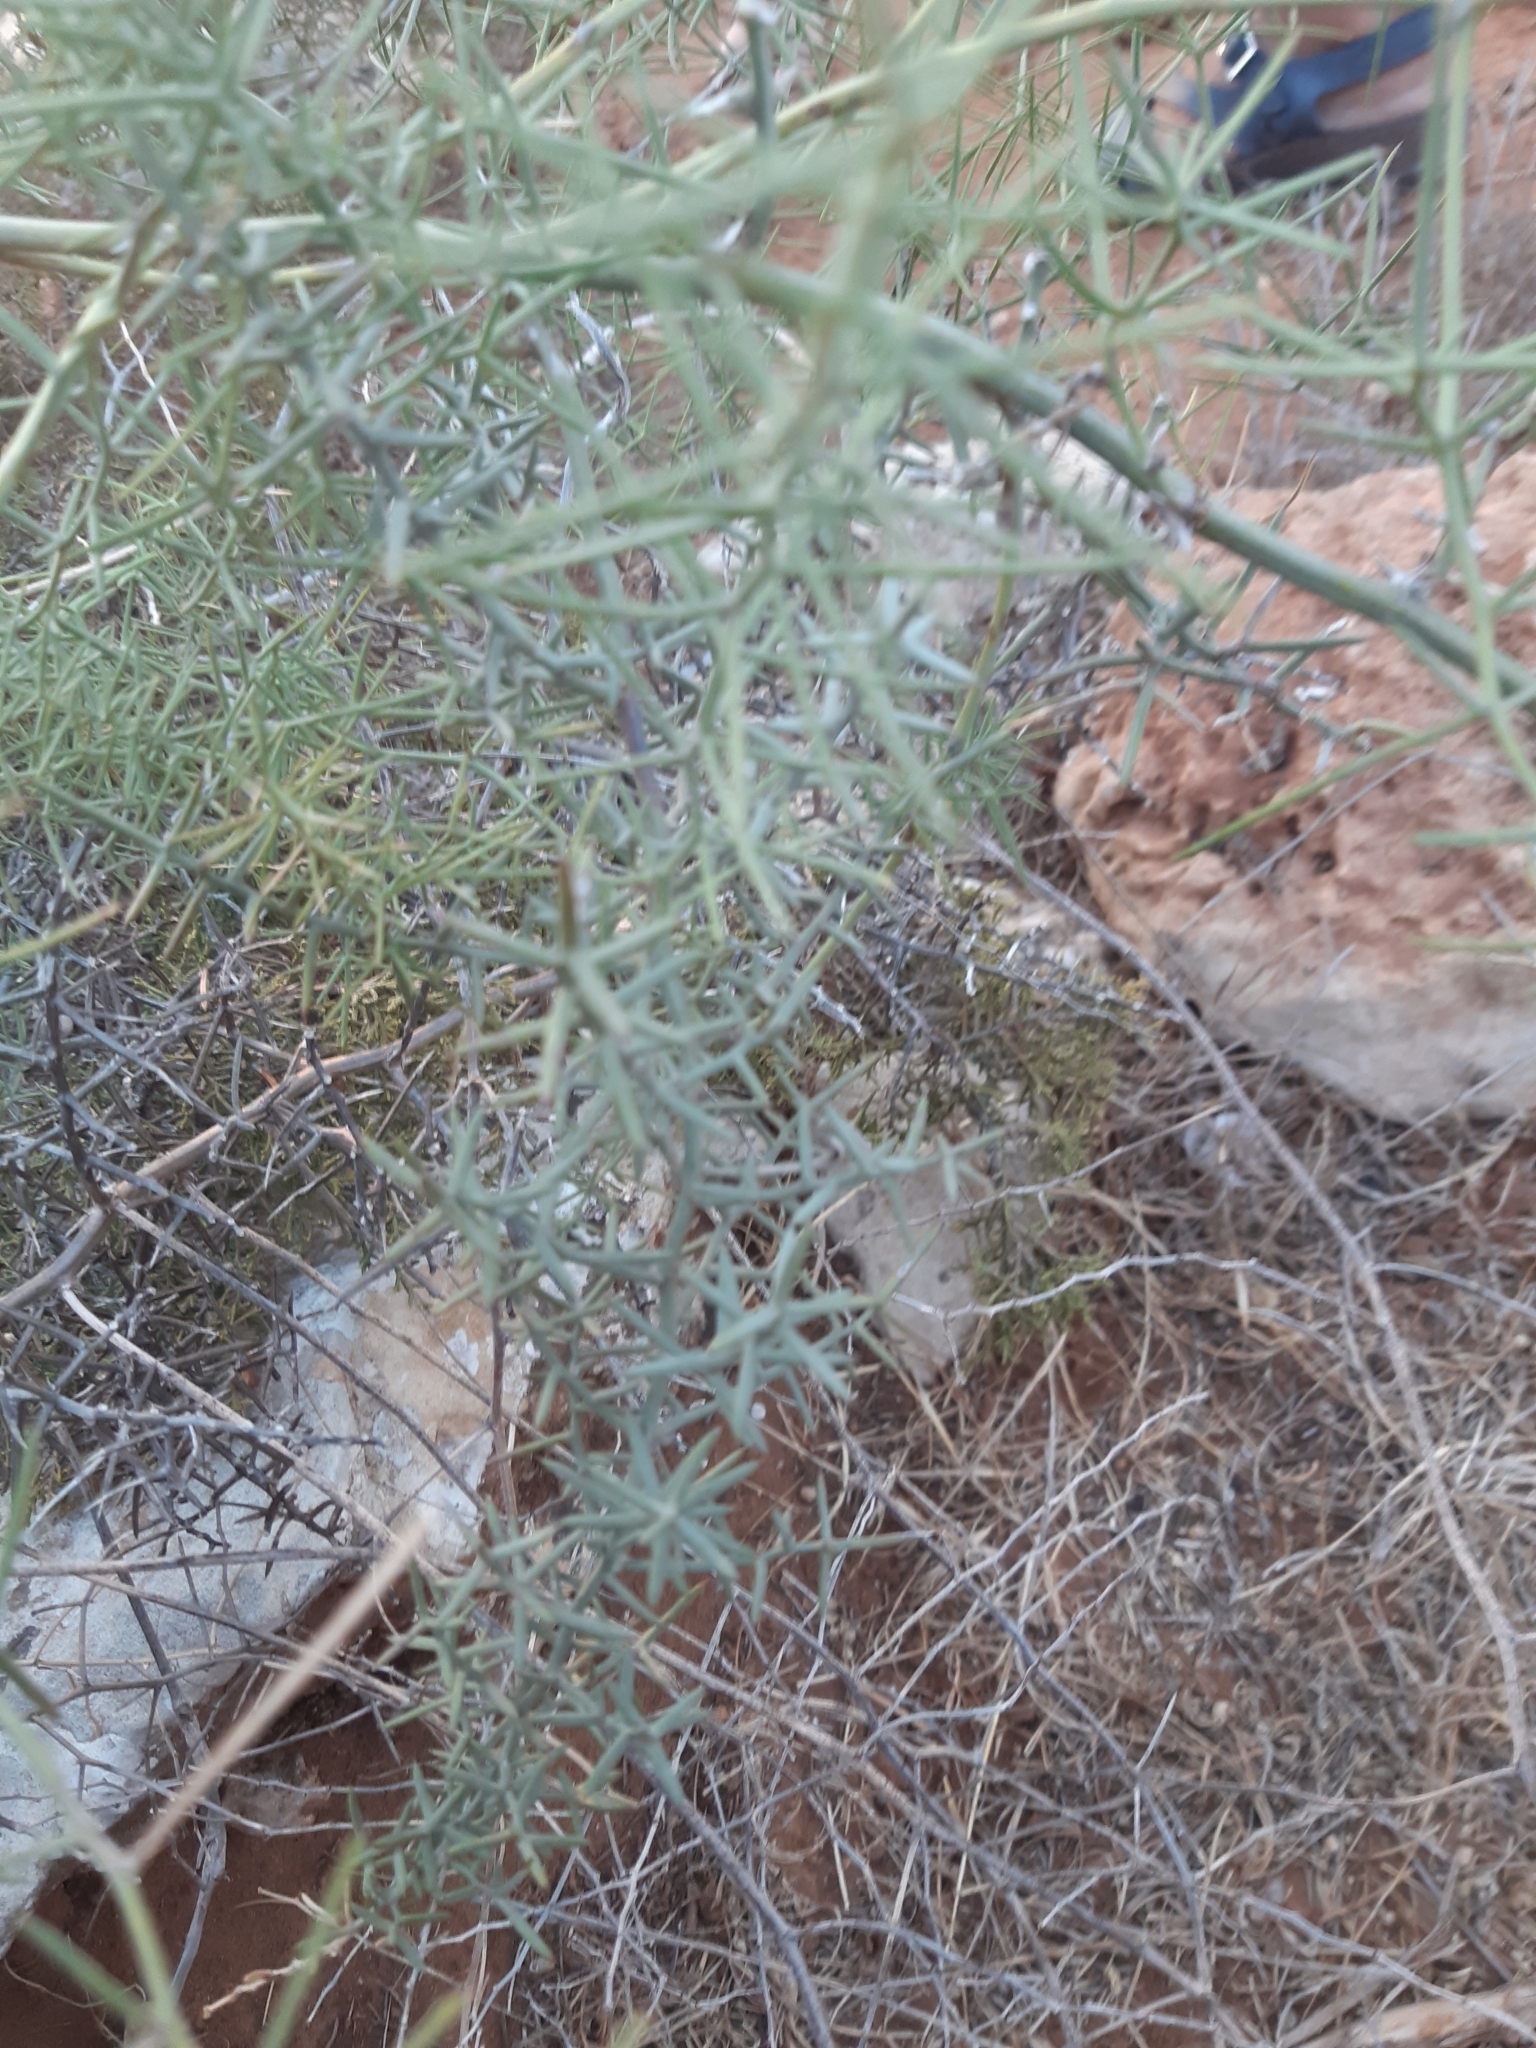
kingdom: Plantae
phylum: Tracheophyta
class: Liliopsida
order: Asparagales
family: Asparagaceae
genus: Asparagus
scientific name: Asparagus horridus
